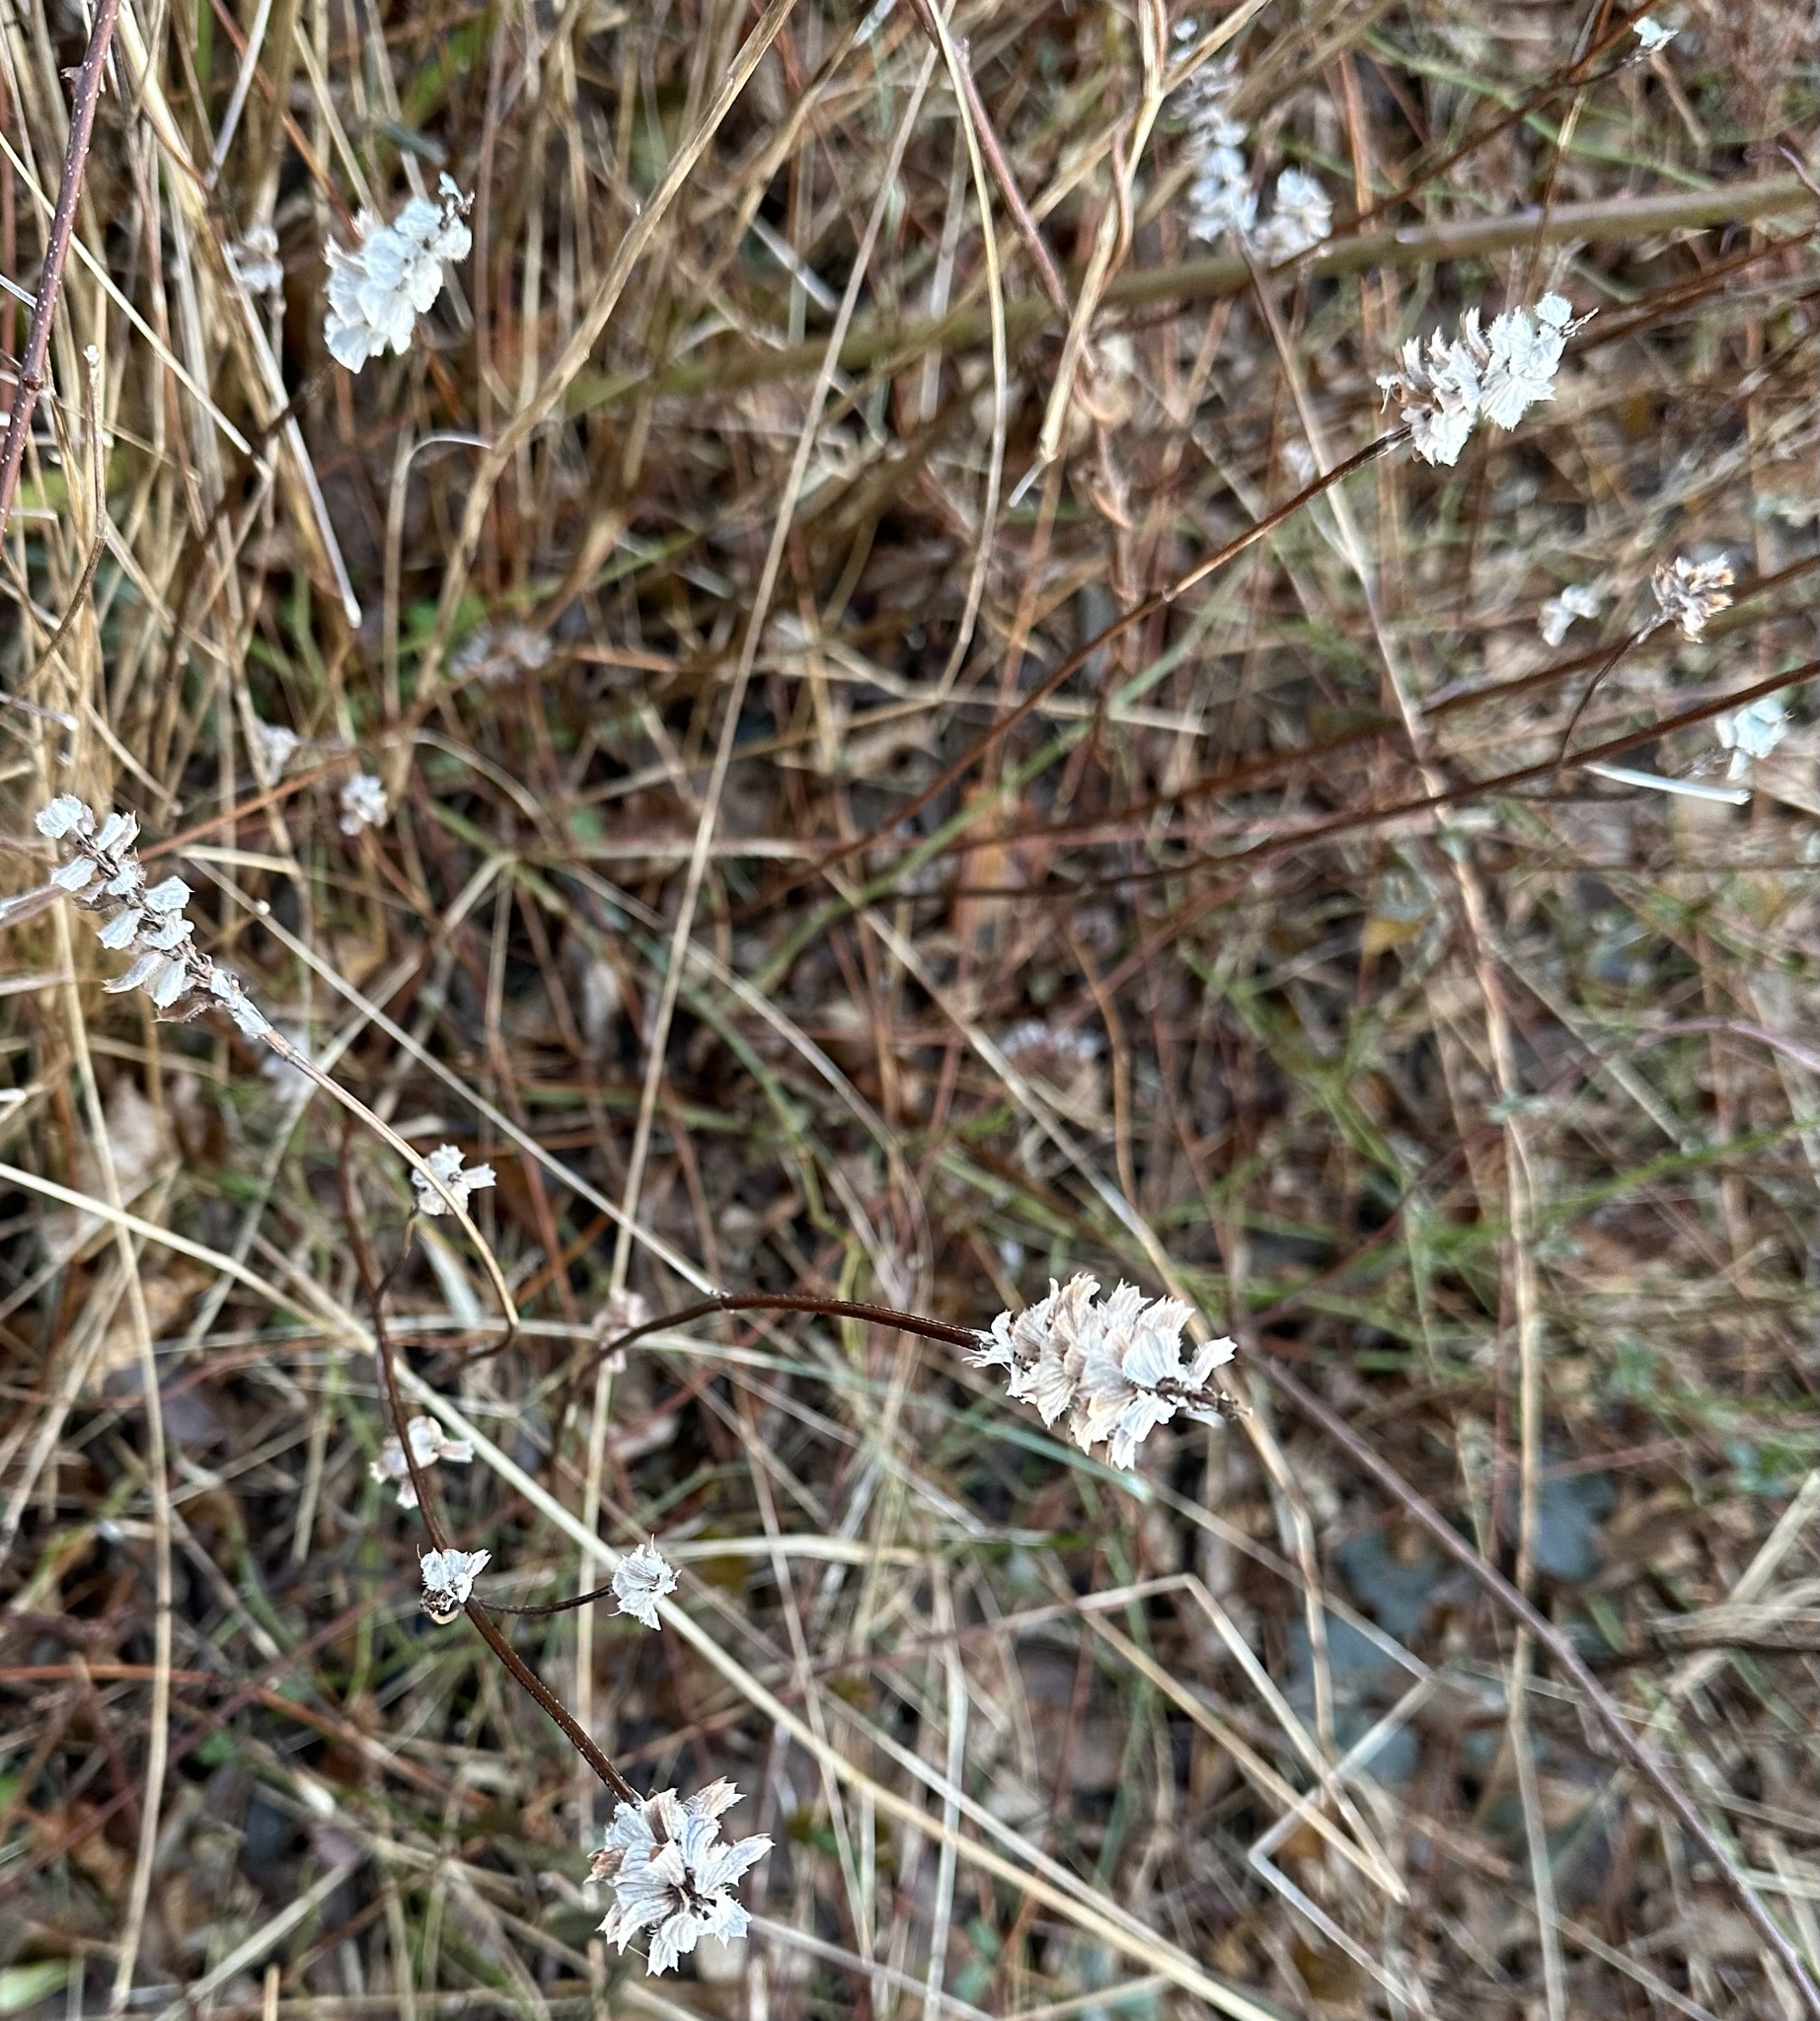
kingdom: Plantae
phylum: Tracheophyta
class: Magnoliopsida
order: Lamiales
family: Lamiaceae
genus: Prunella
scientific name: Prunella vulgaris
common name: Heal-all
